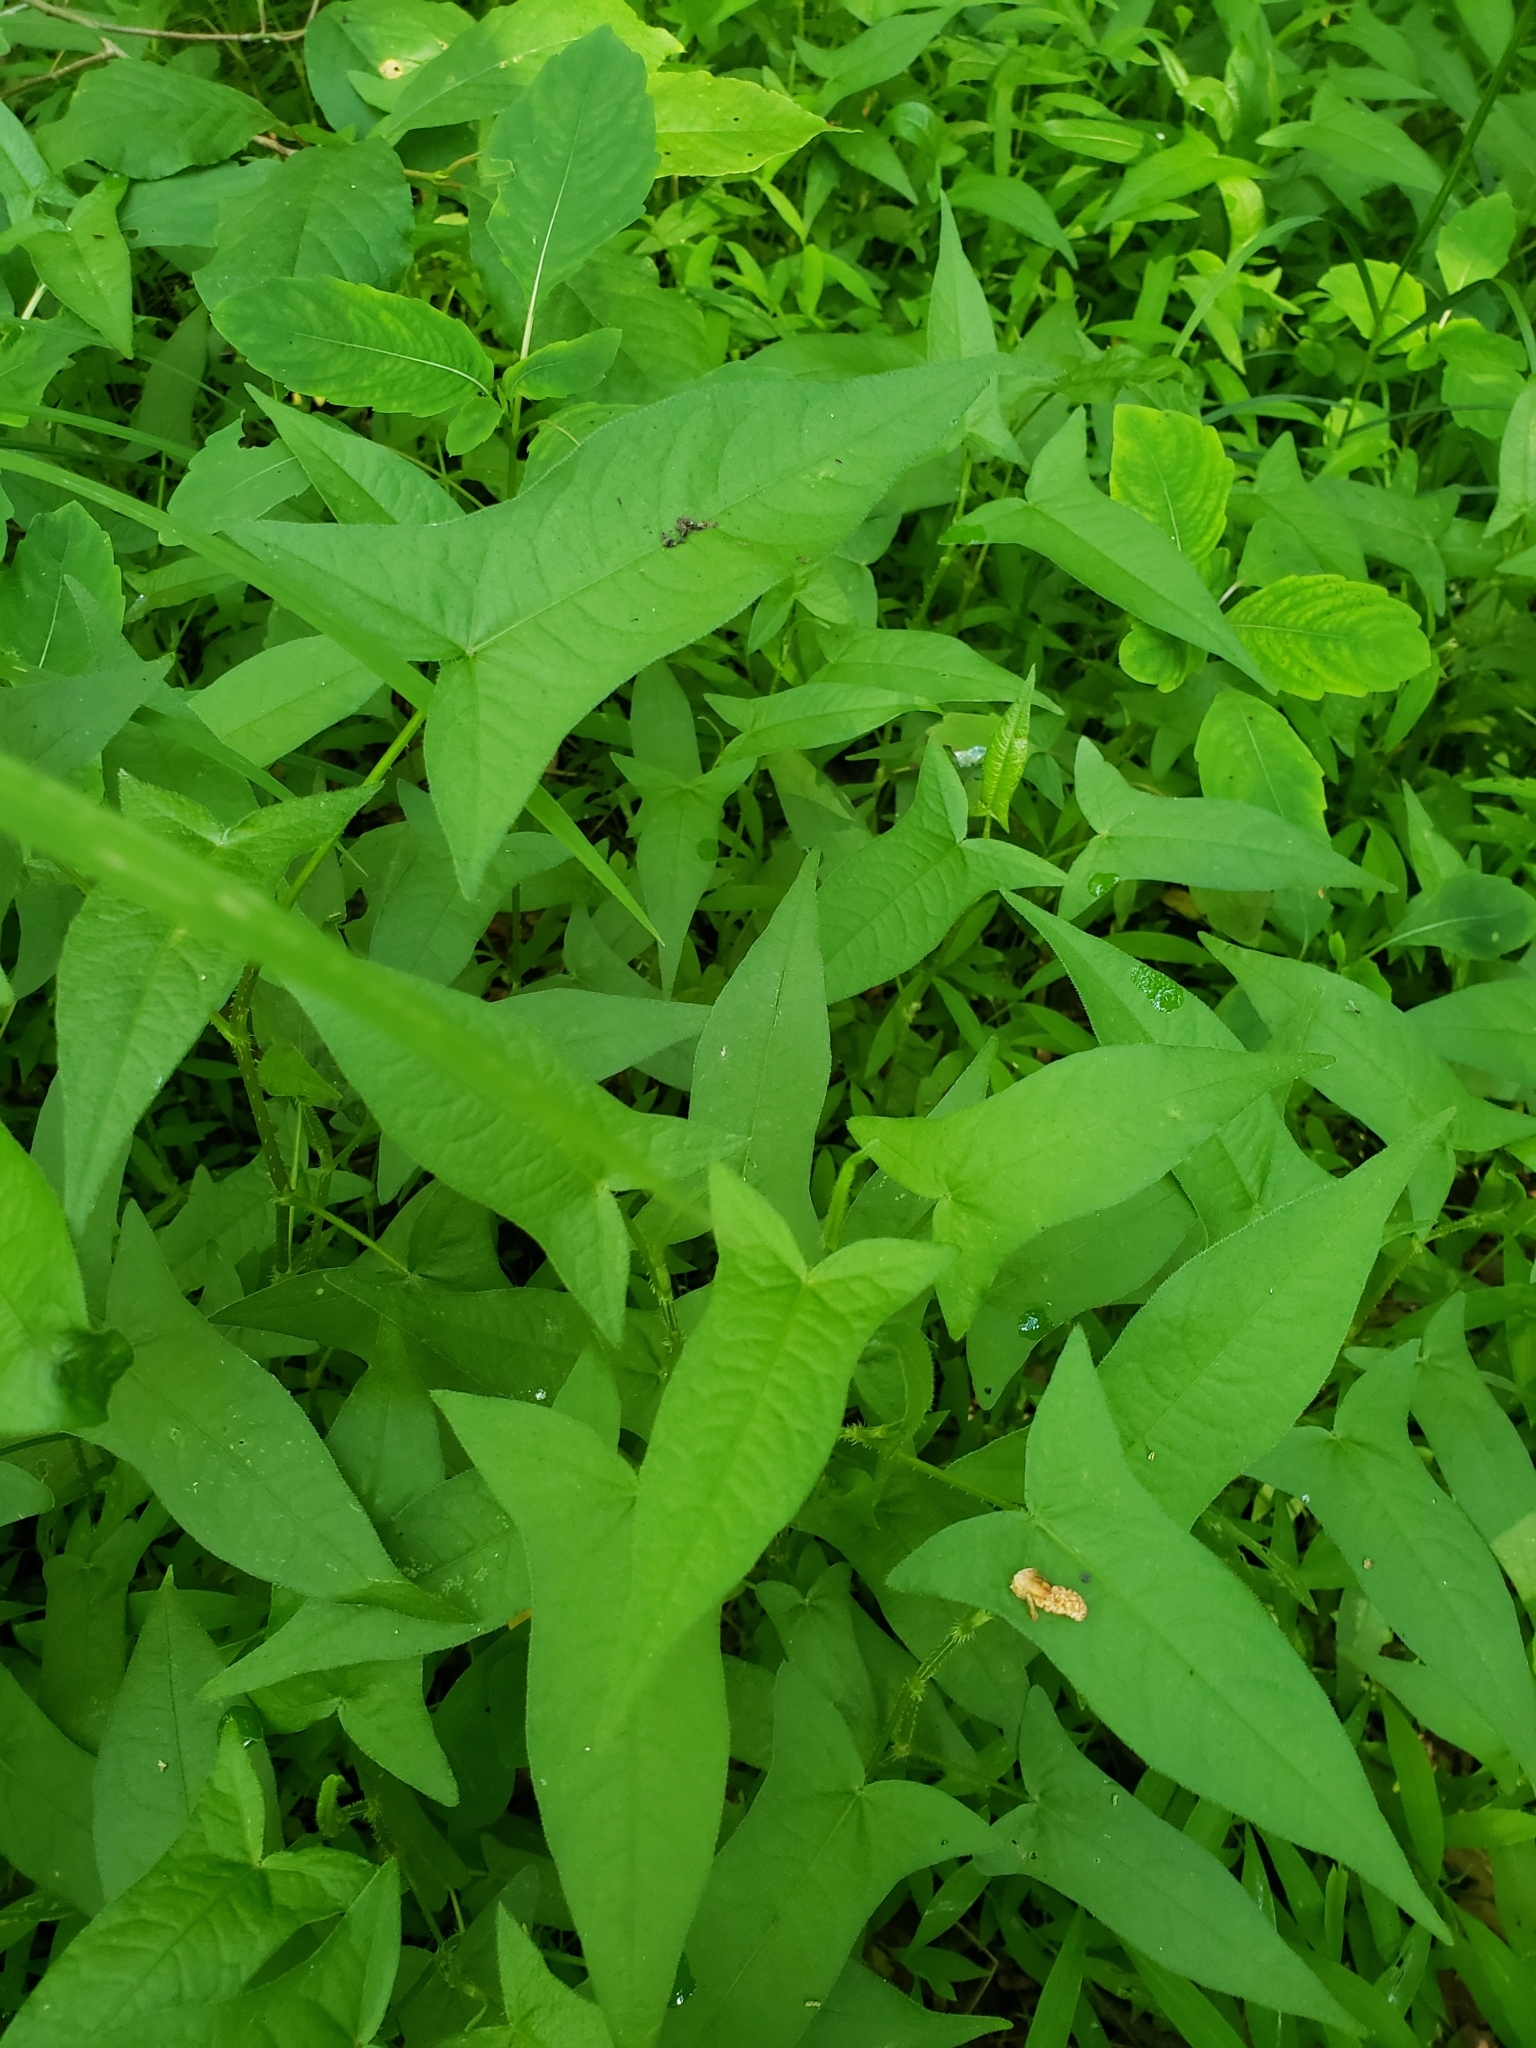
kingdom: Plantae
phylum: Tracheophyta
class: Magnoliopsida
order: Caryophyllales
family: Polygonaceae
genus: Persicaria
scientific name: Persicaria arifolia
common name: Halberd-leaved tear-thumb
